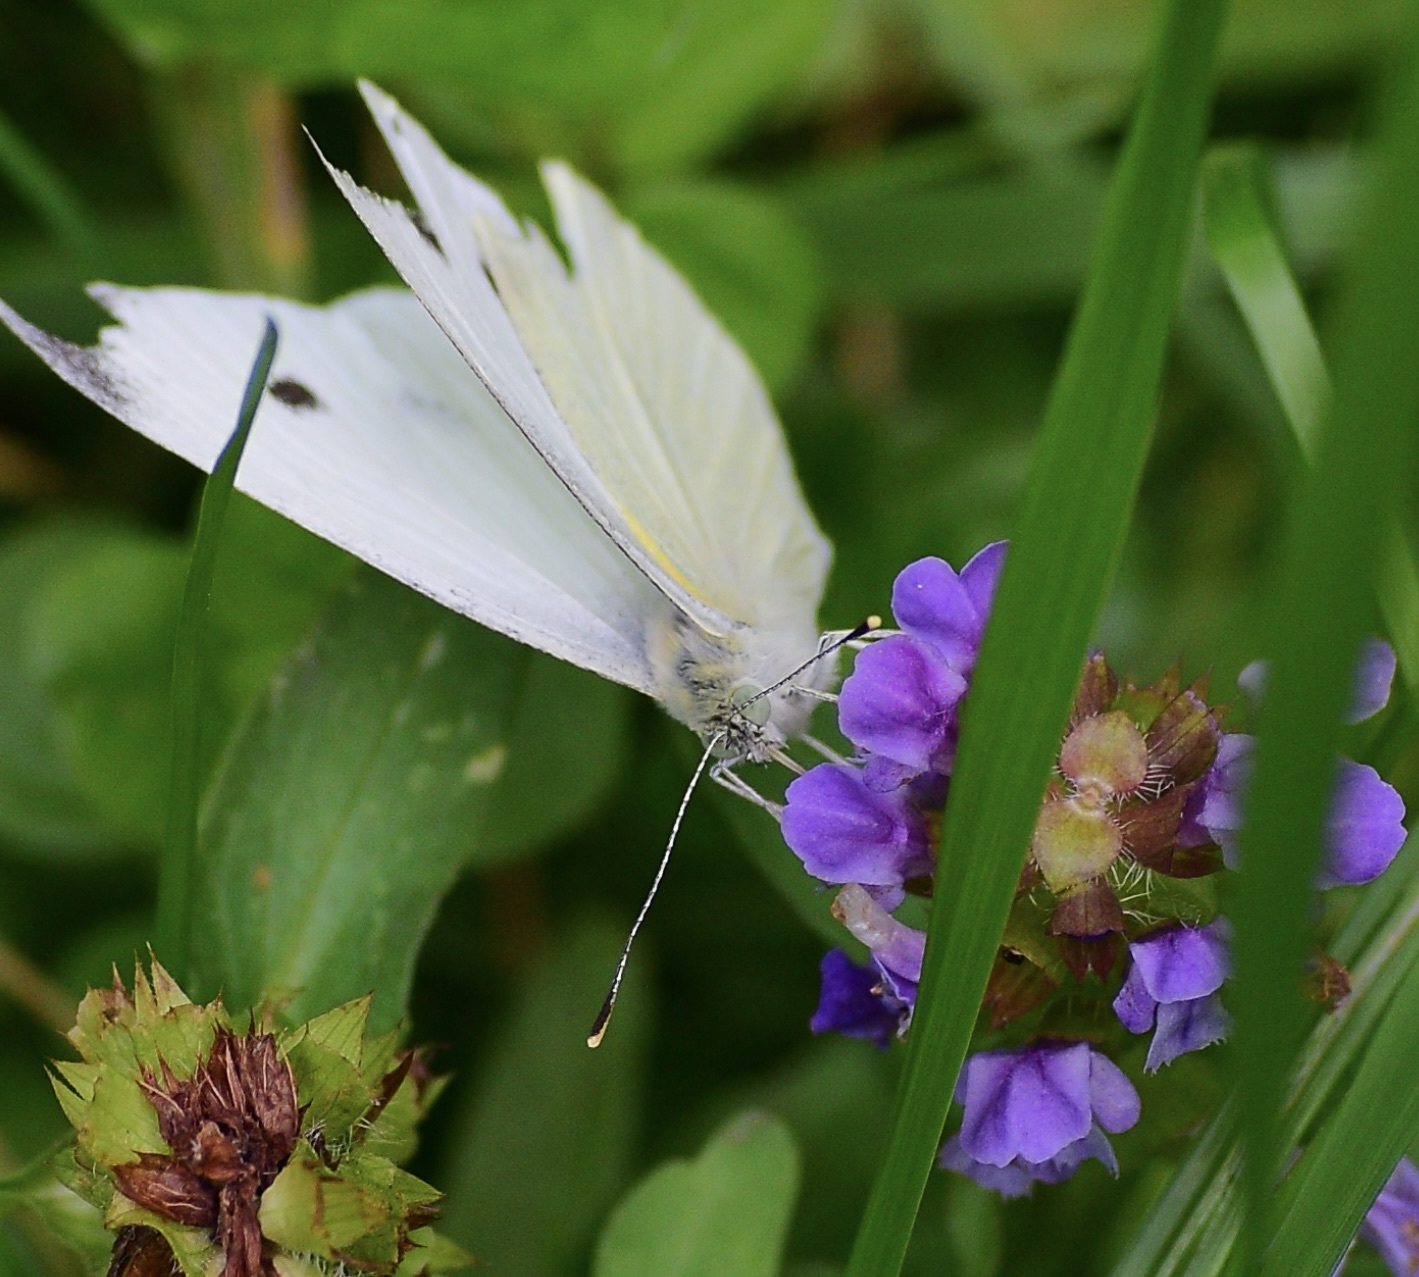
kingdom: Animalia
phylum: Arthropoda
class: Insecta
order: Lepidoptera
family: Pieridae
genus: Pieris
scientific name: Pieris rapae
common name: Small white
